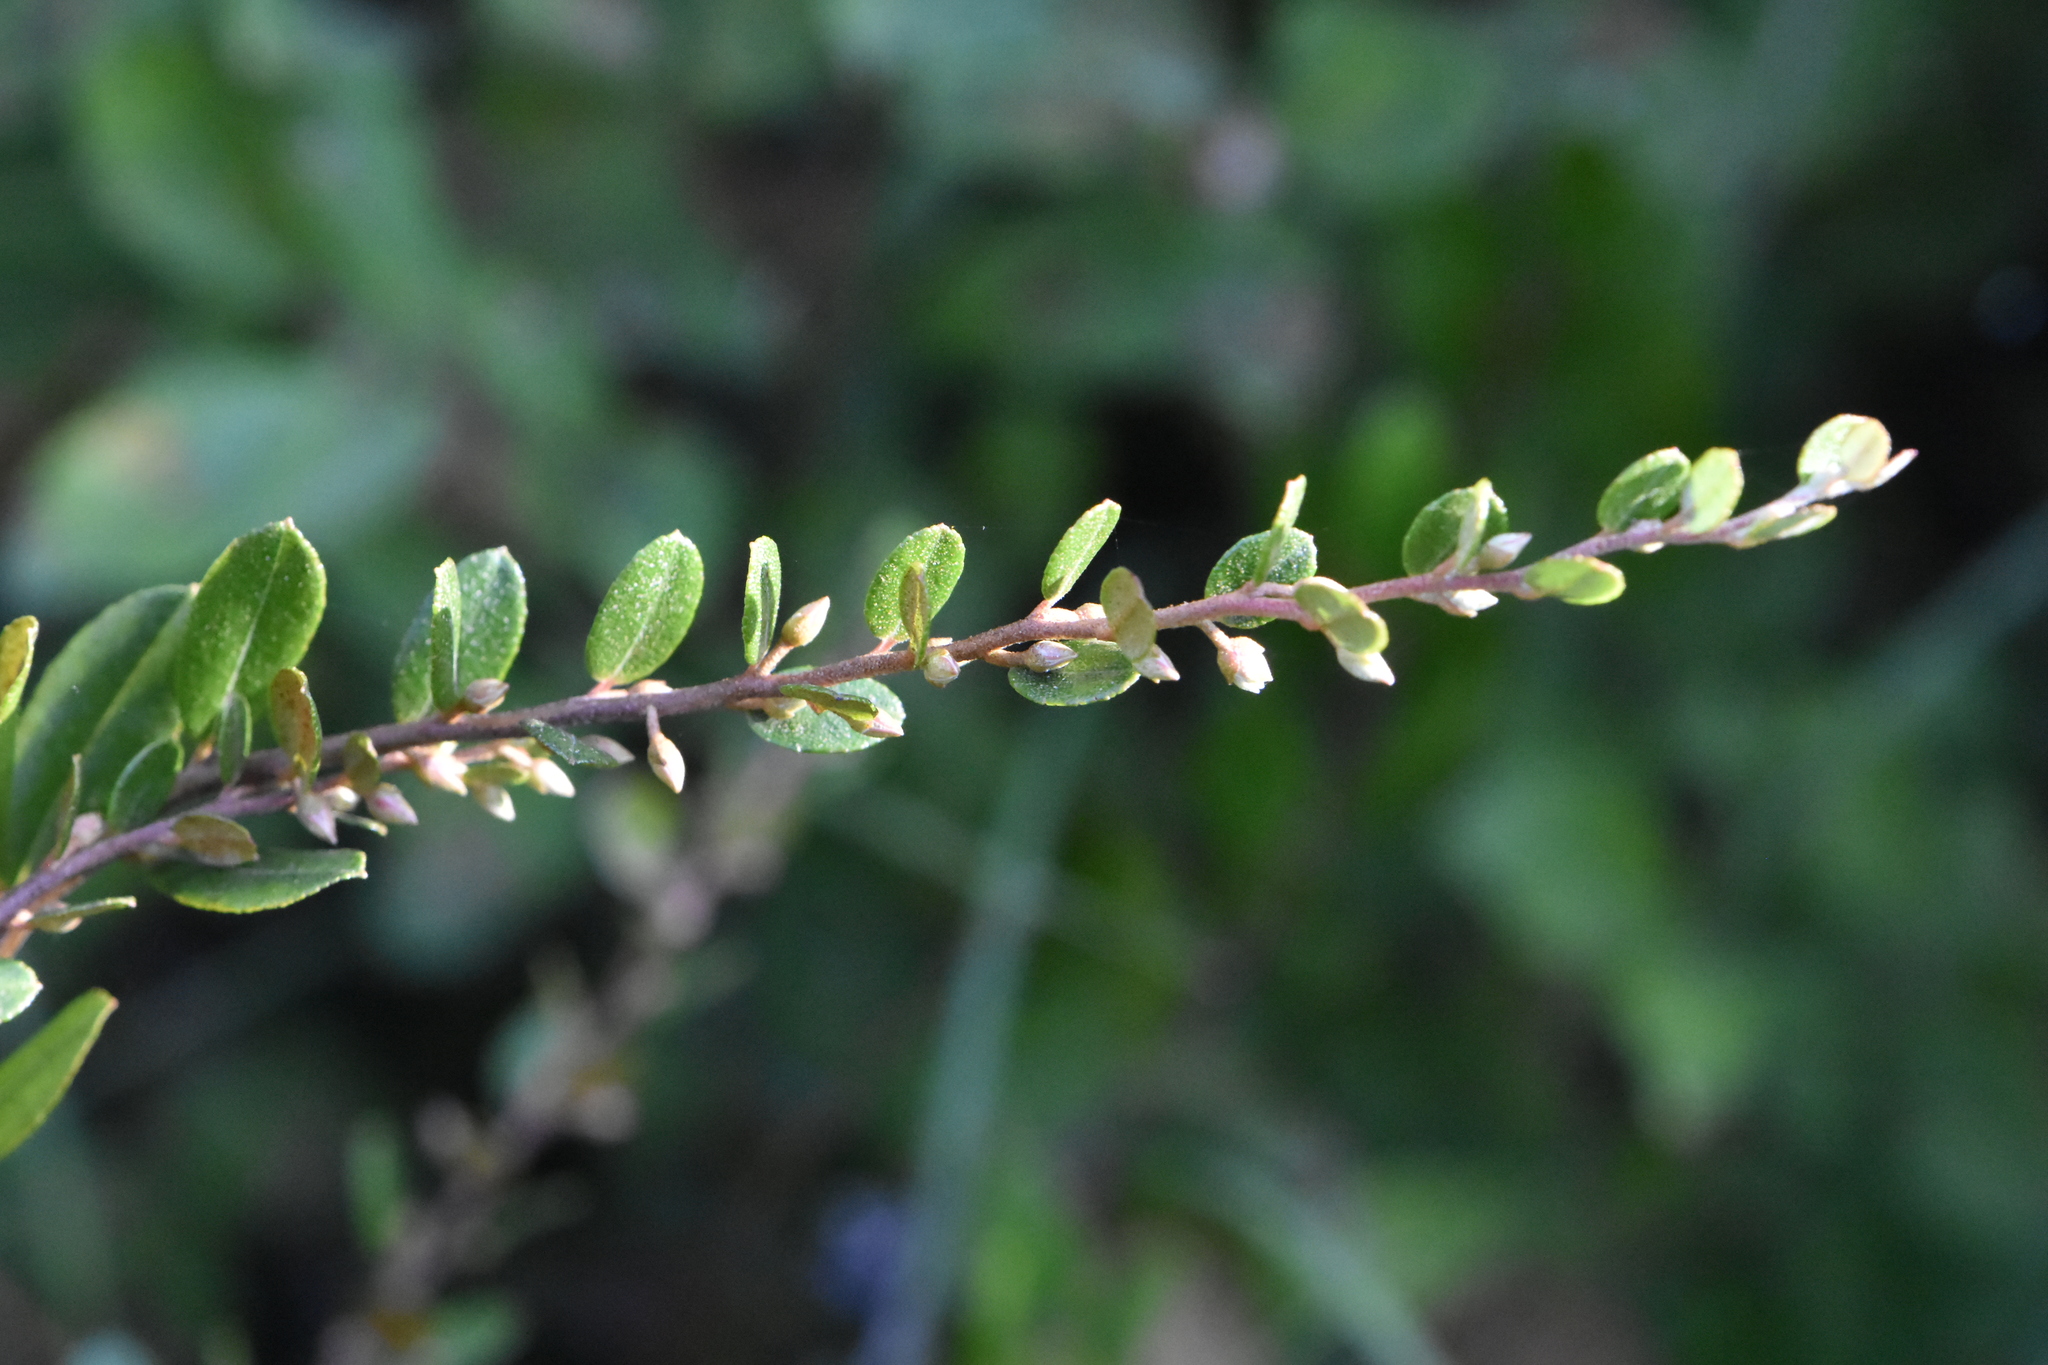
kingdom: Plantae
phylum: Tracheophyta
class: Magnoliopsida
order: Ericales
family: Ericaceae
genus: Chamaedaphne
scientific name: Chamaedaphne calyculata
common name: Leatherleaf
